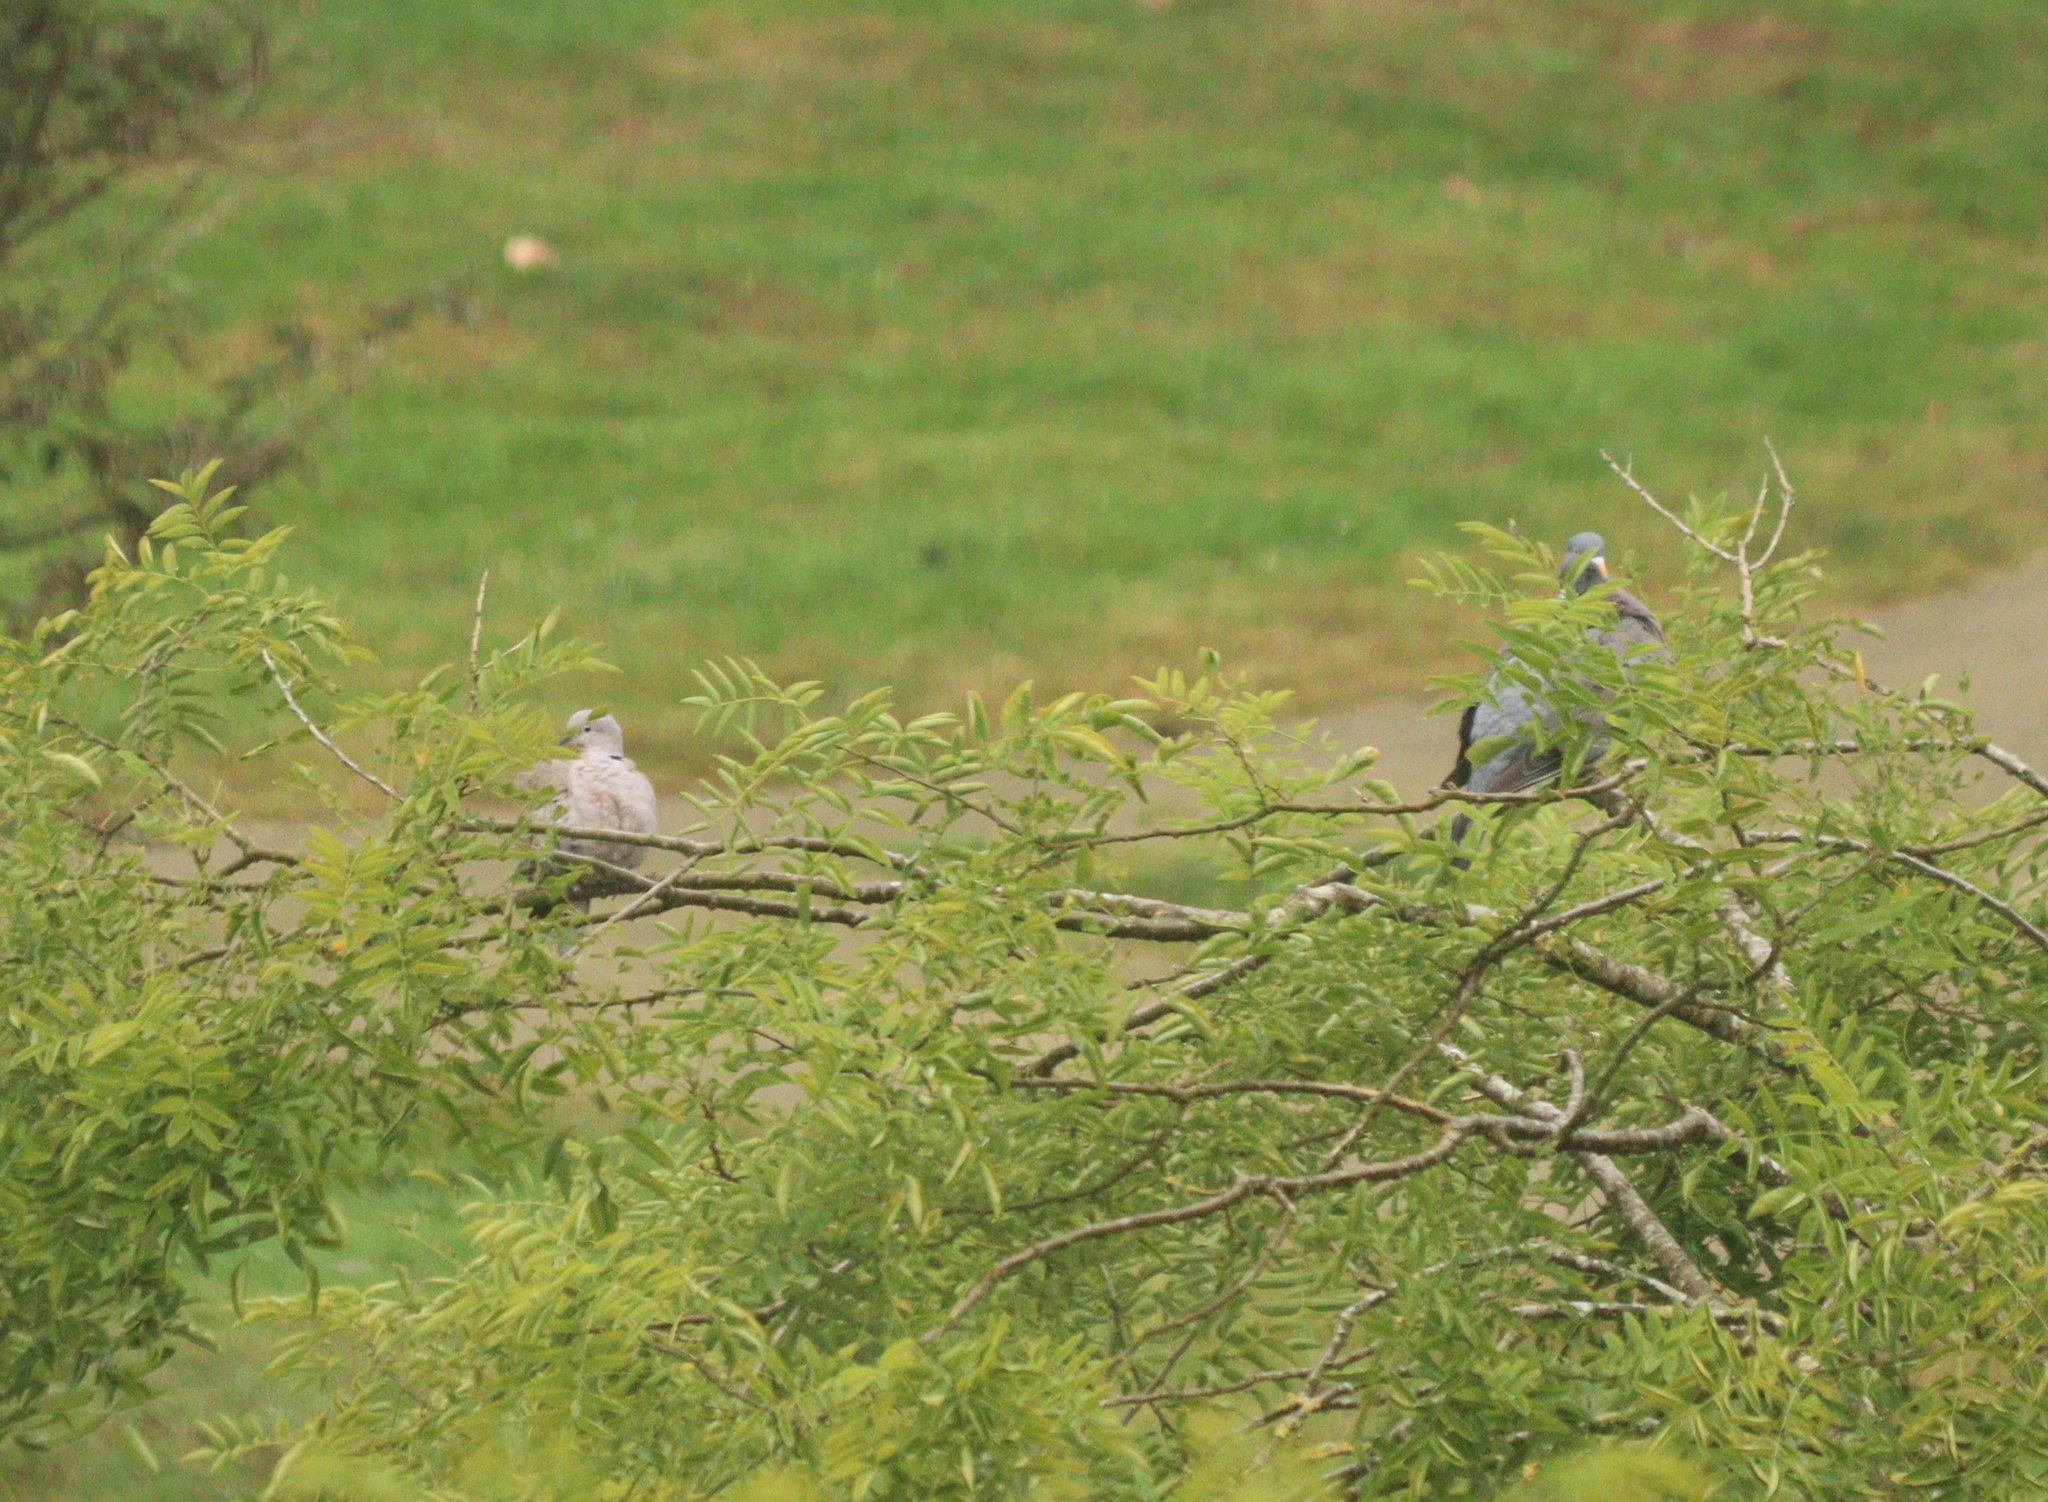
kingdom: Animalia
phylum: Chordata
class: Aves
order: Columbiformes
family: Columbidae
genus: Streptopelia
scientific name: Streptopelia decaocto
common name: Eurasian collared dove
